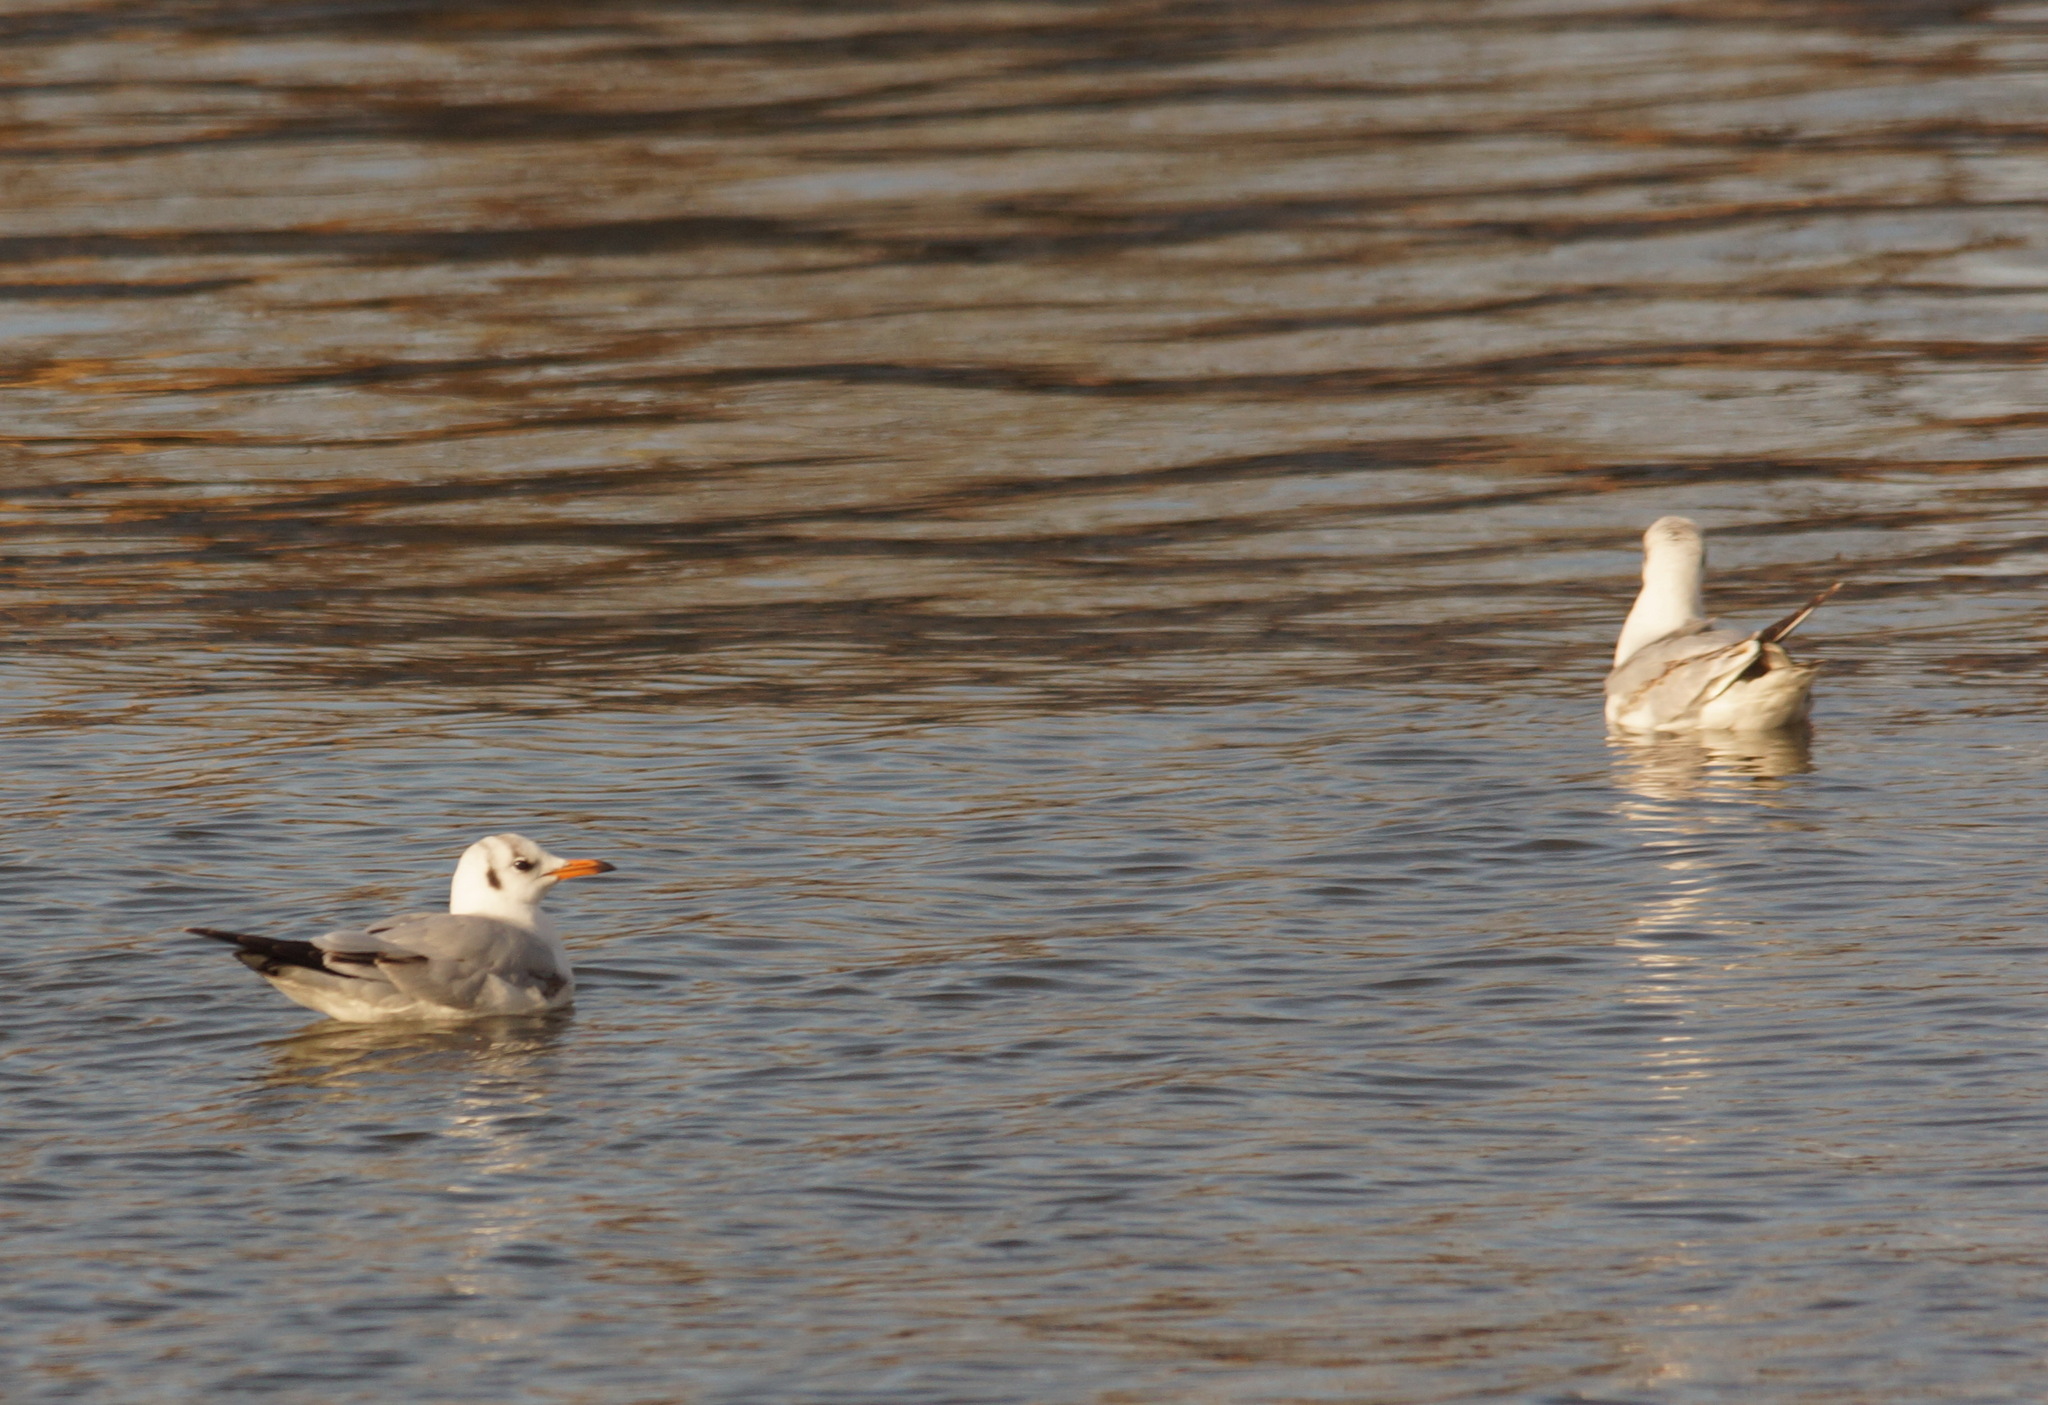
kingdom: Animalia
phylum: Chordata
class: Aves
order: Charadriiformes
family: Laridae
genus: Chroicocephalus
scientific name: Chroicocephalus ridibundus
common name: Black-headed gull
